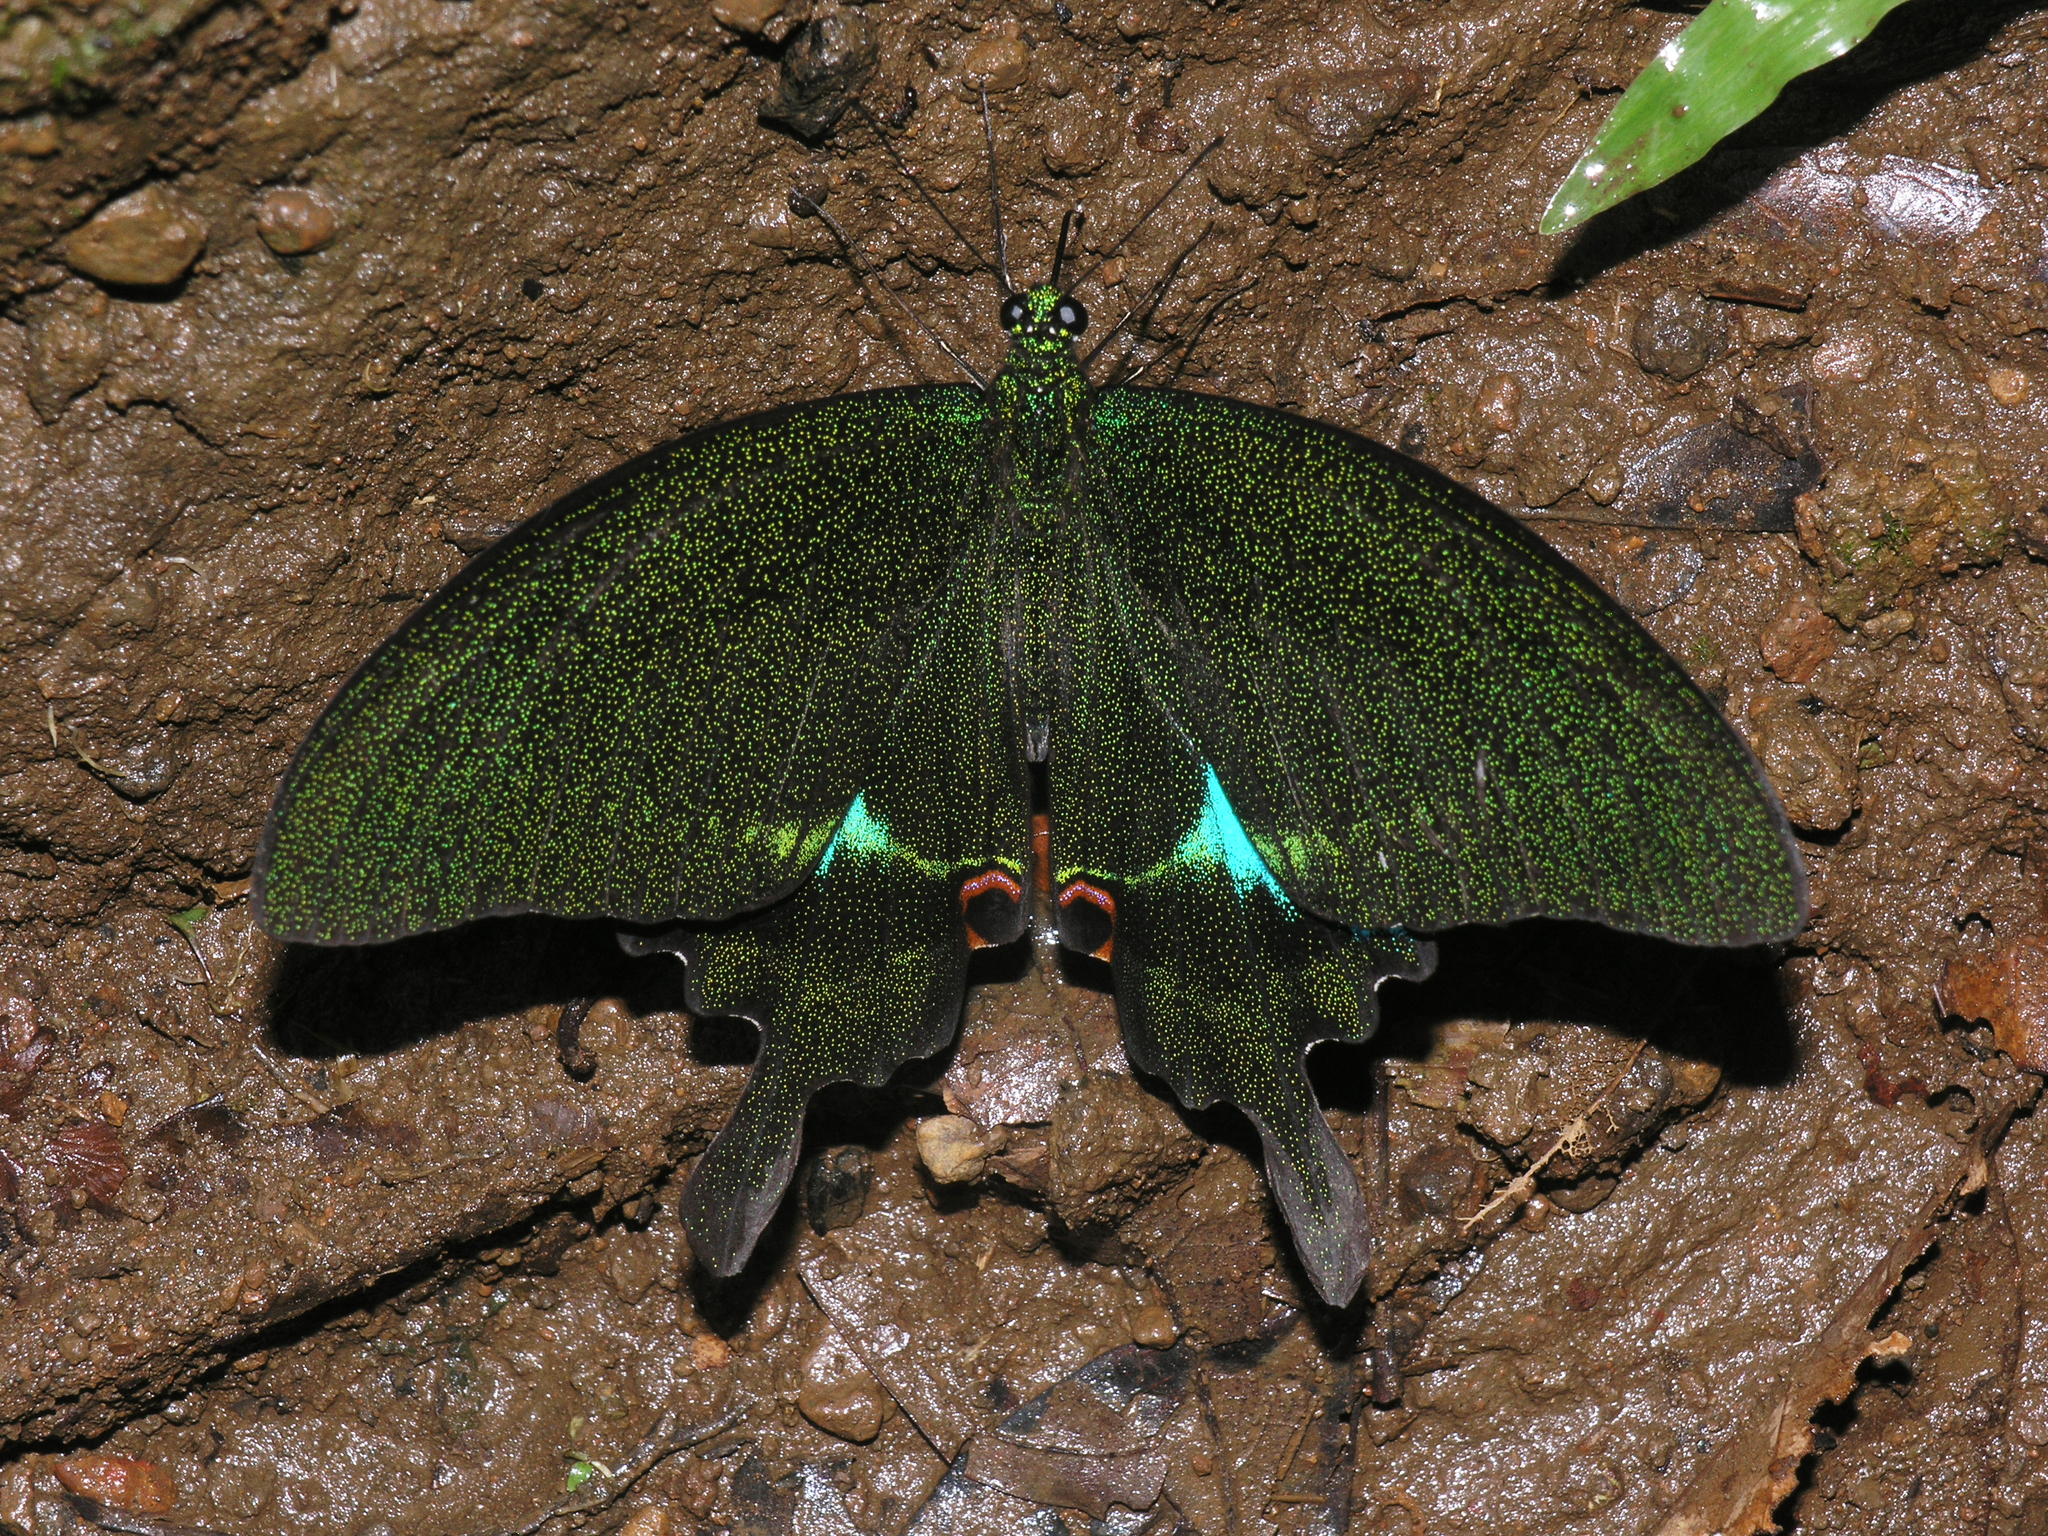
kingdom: Animalia
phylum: Arthropoda
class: Insecta
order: Lepidoptera
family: Papilionidae
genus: Papilio
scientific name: Papilio paris
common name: Paris peacock
